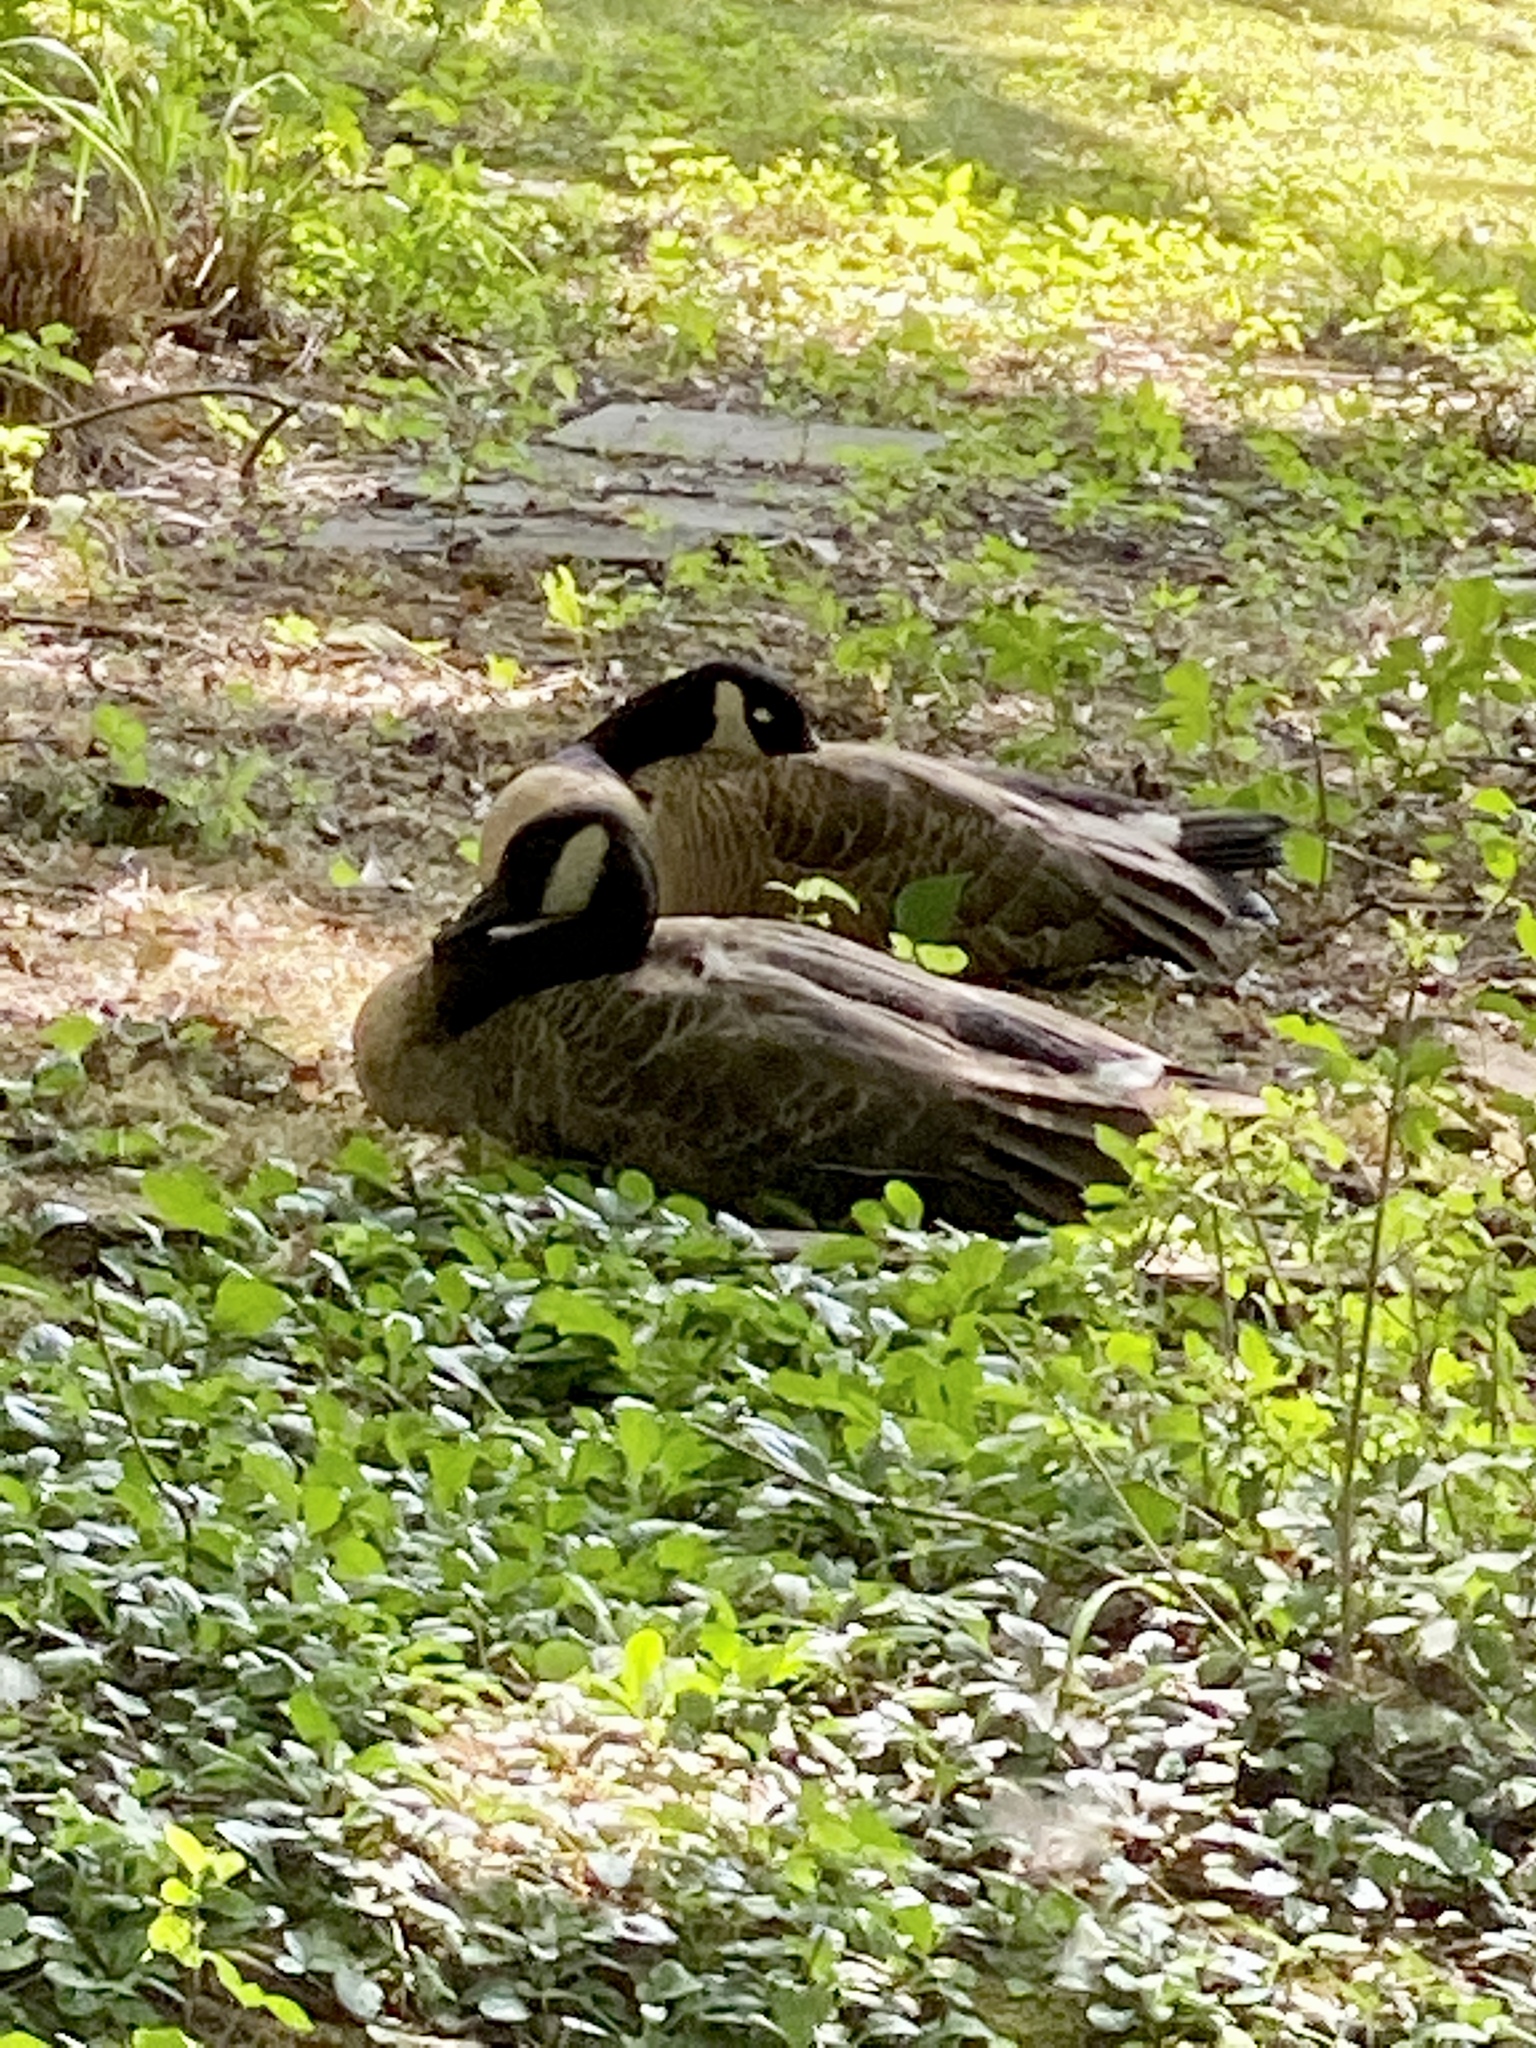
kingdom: Animalia
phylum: Chordata
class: Aves
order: Anseriformes
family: Anatidae
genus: Branta
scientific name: Branta canadensis
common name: Canada goose
